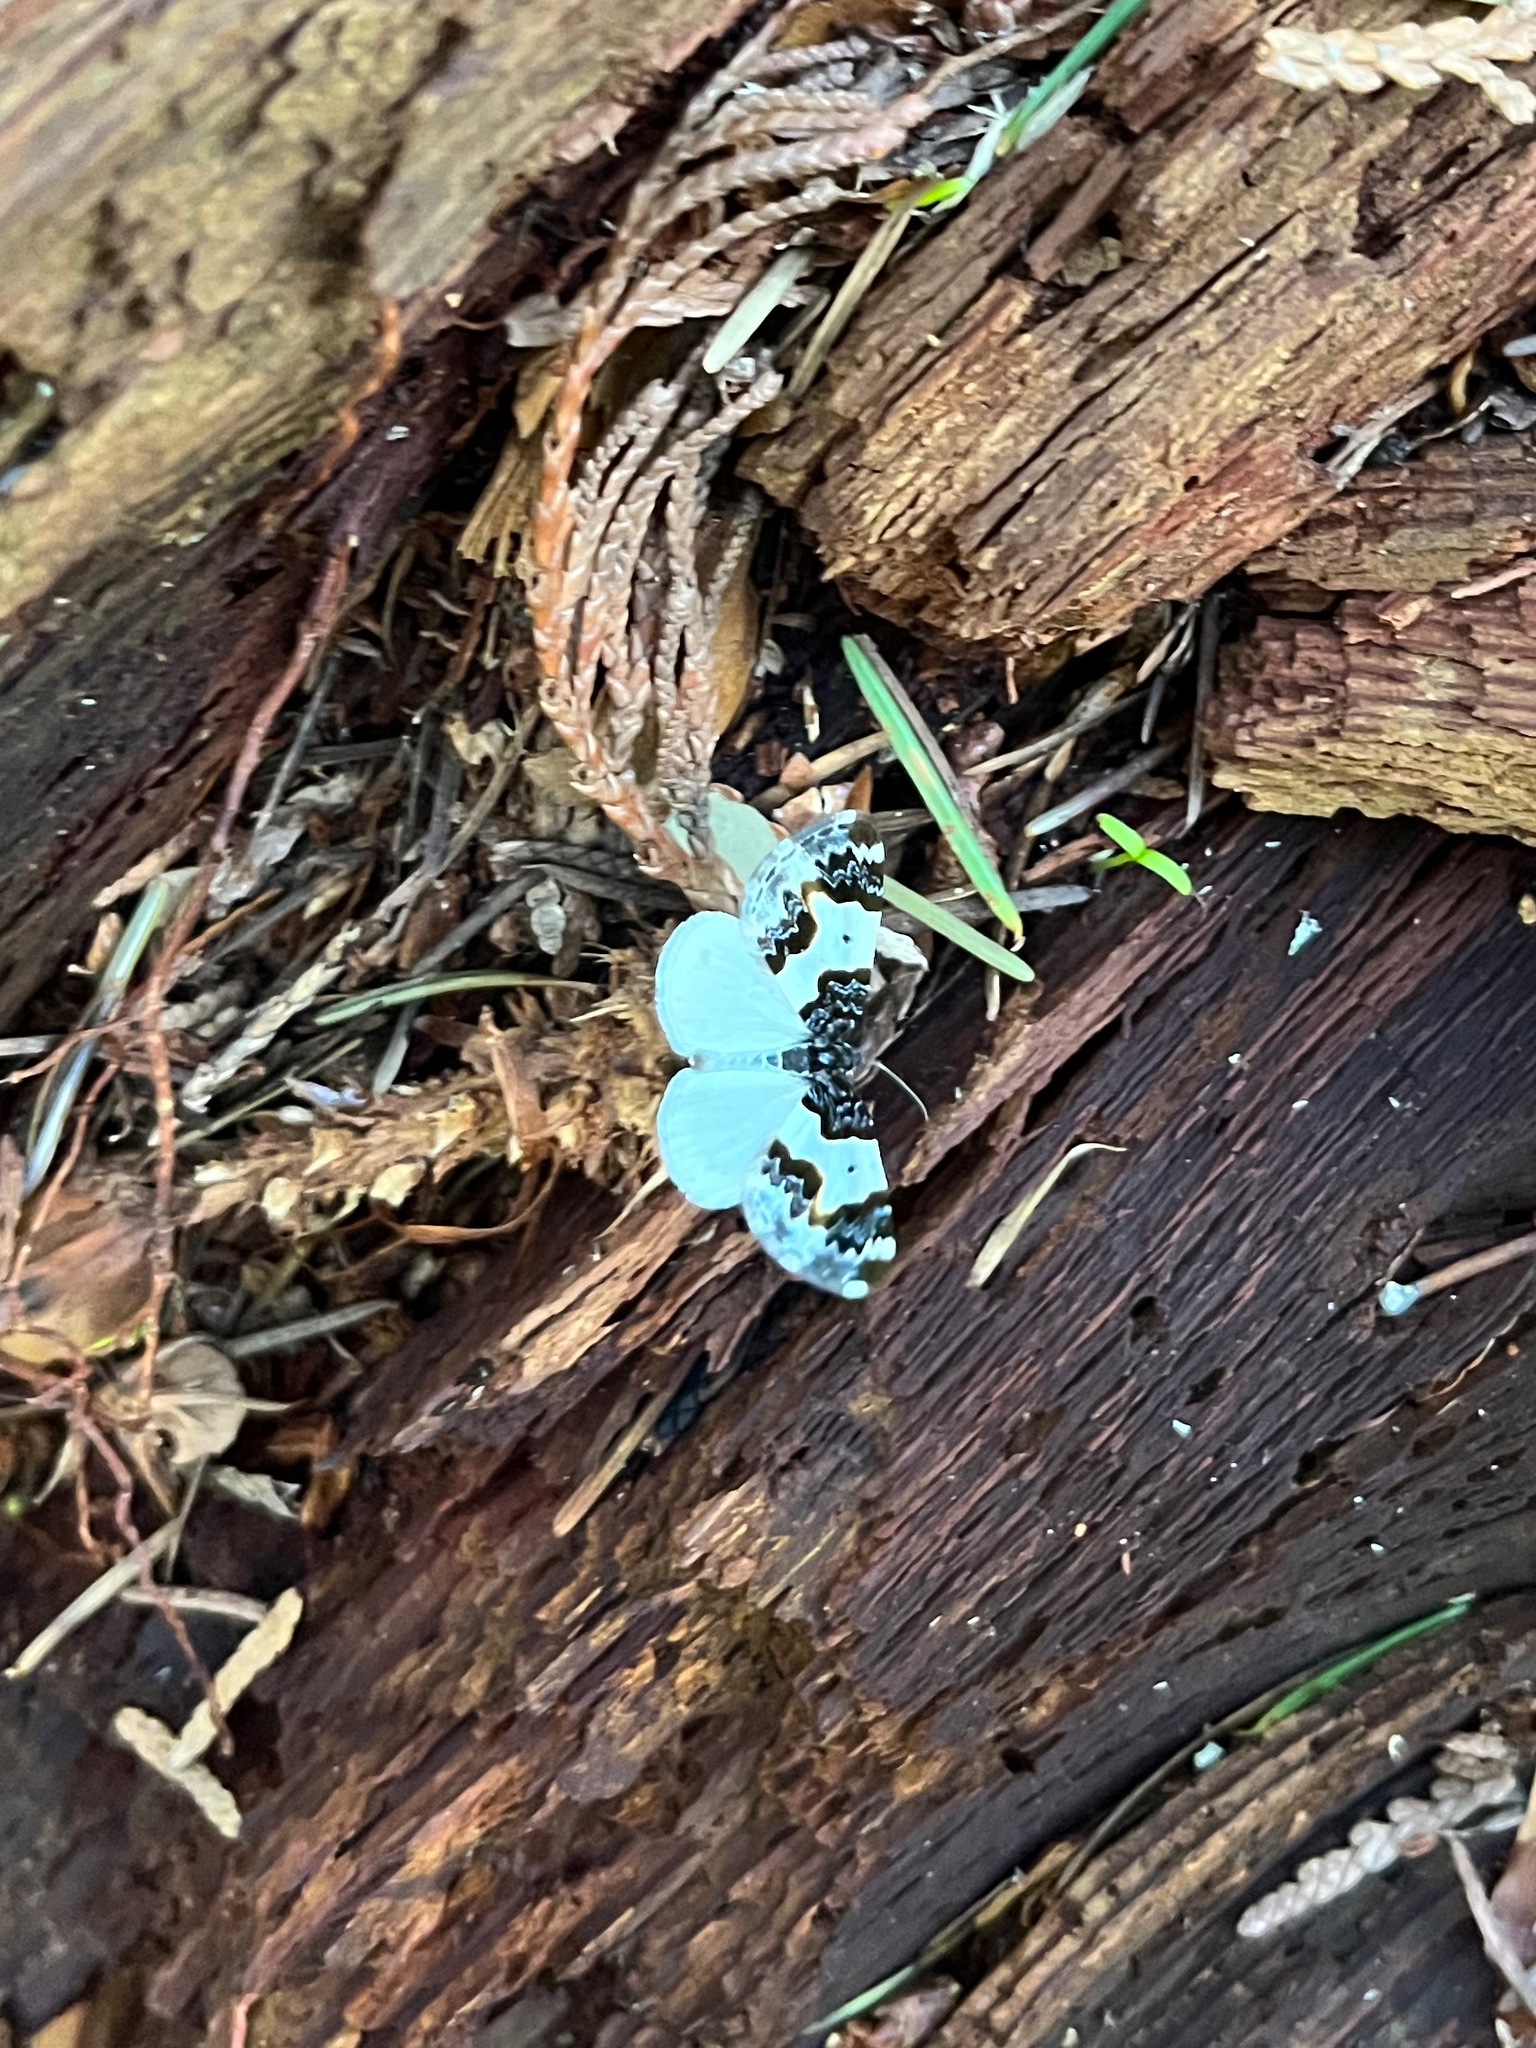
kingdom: Animalia
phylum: Arthropoda
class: Insecta
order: Lepidoptera
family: Geometridae
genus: Mesoleuca
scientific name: Mesoleuca gratulata
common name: Half-white carpet moth
